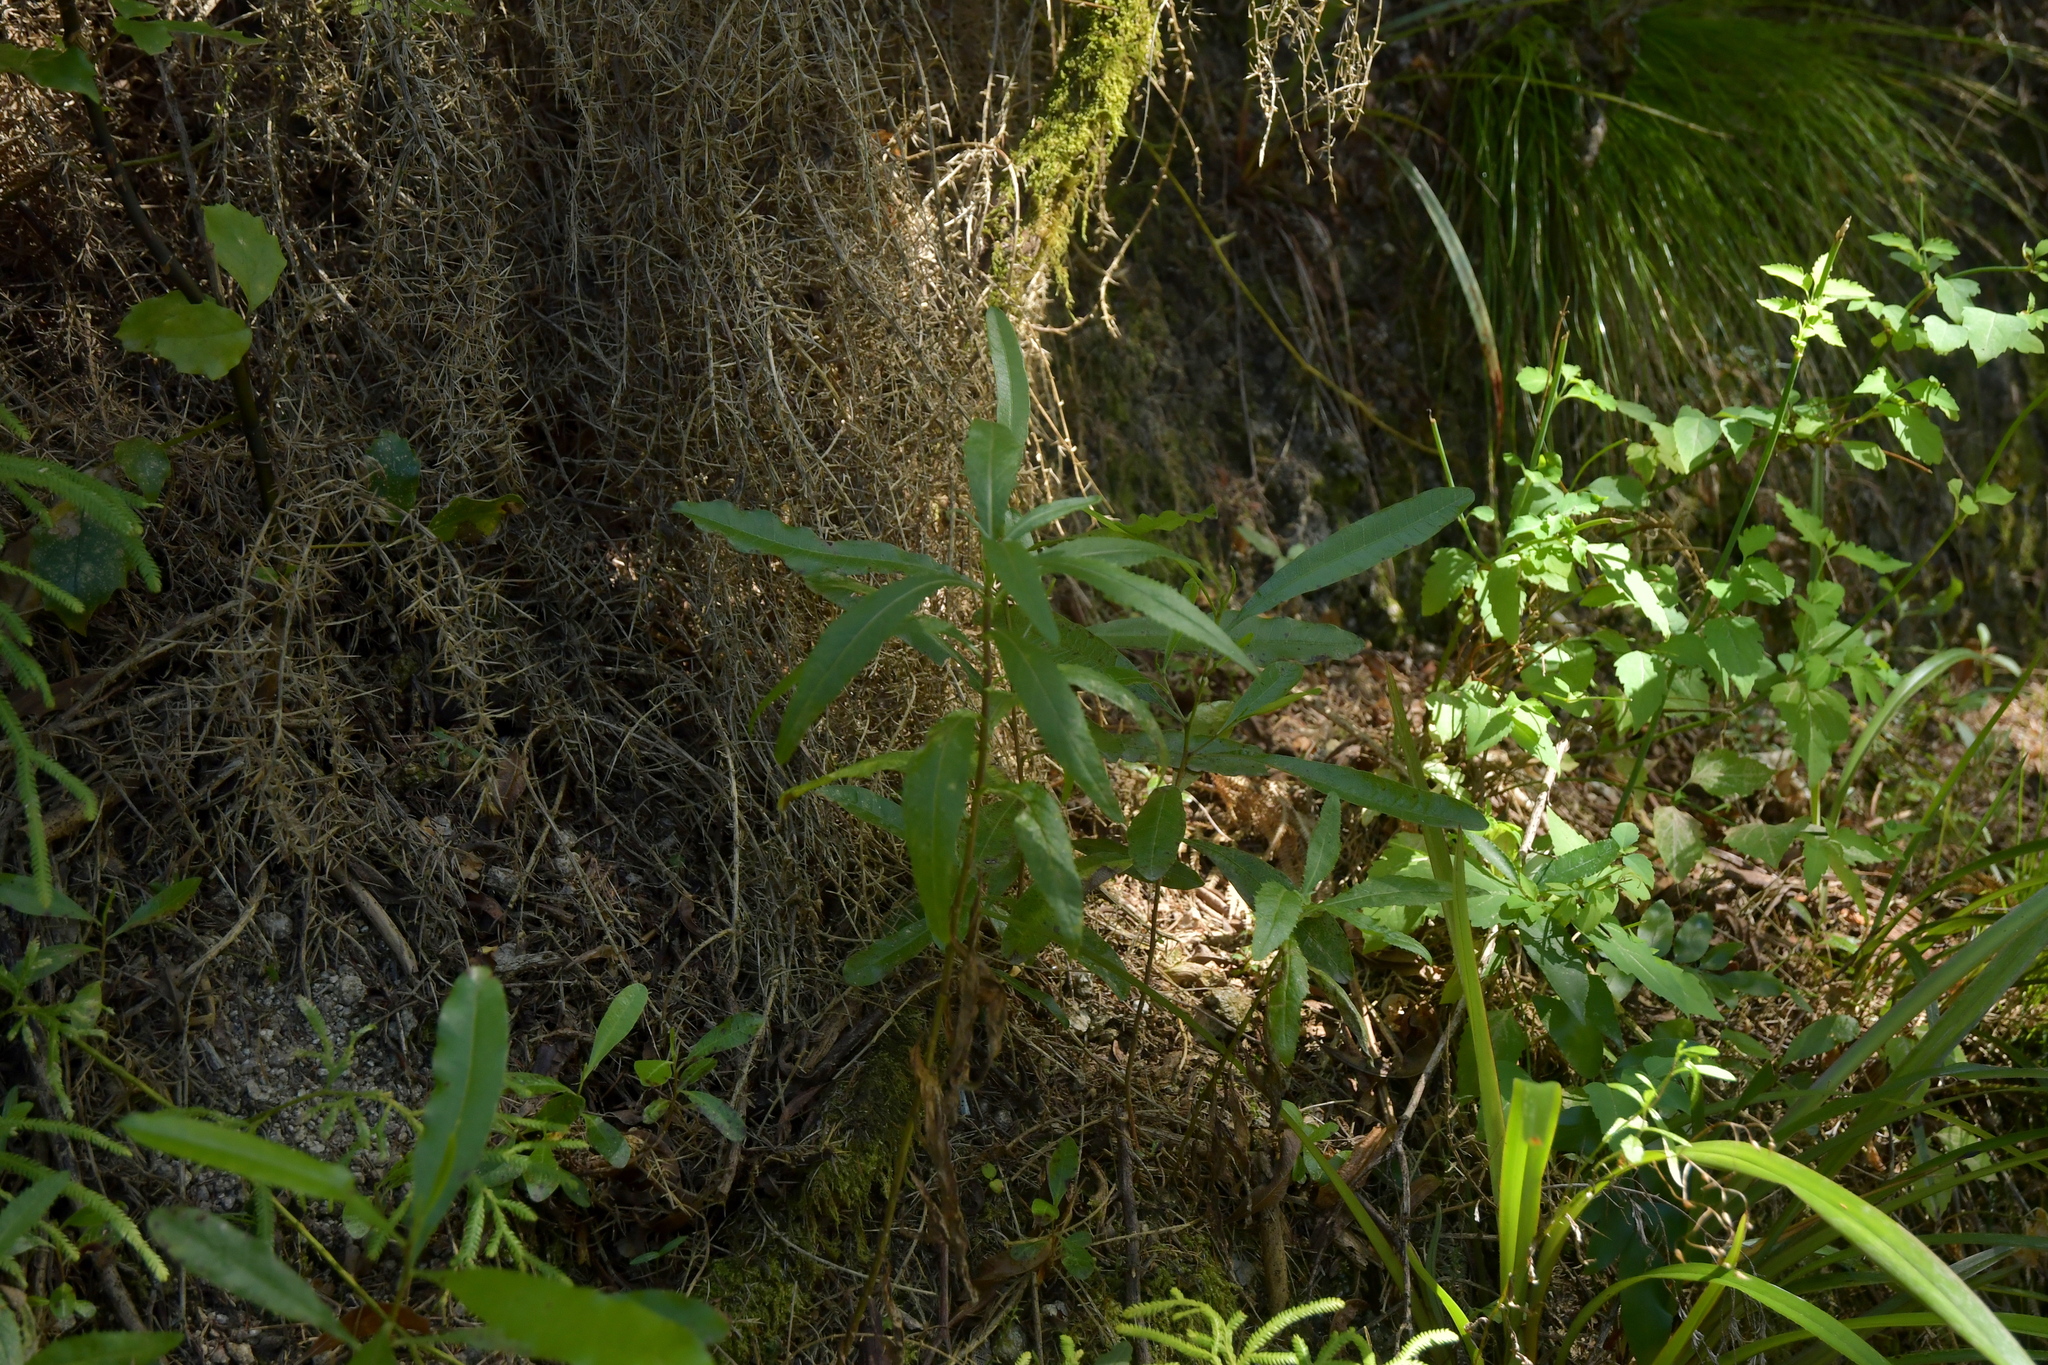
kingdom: Plantae
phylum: Tracheophyta
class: Magnoliopsida
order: Asterales
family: Asteraceae
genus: Senecio
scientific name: Senecio minimus
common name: Toothed fireweed
